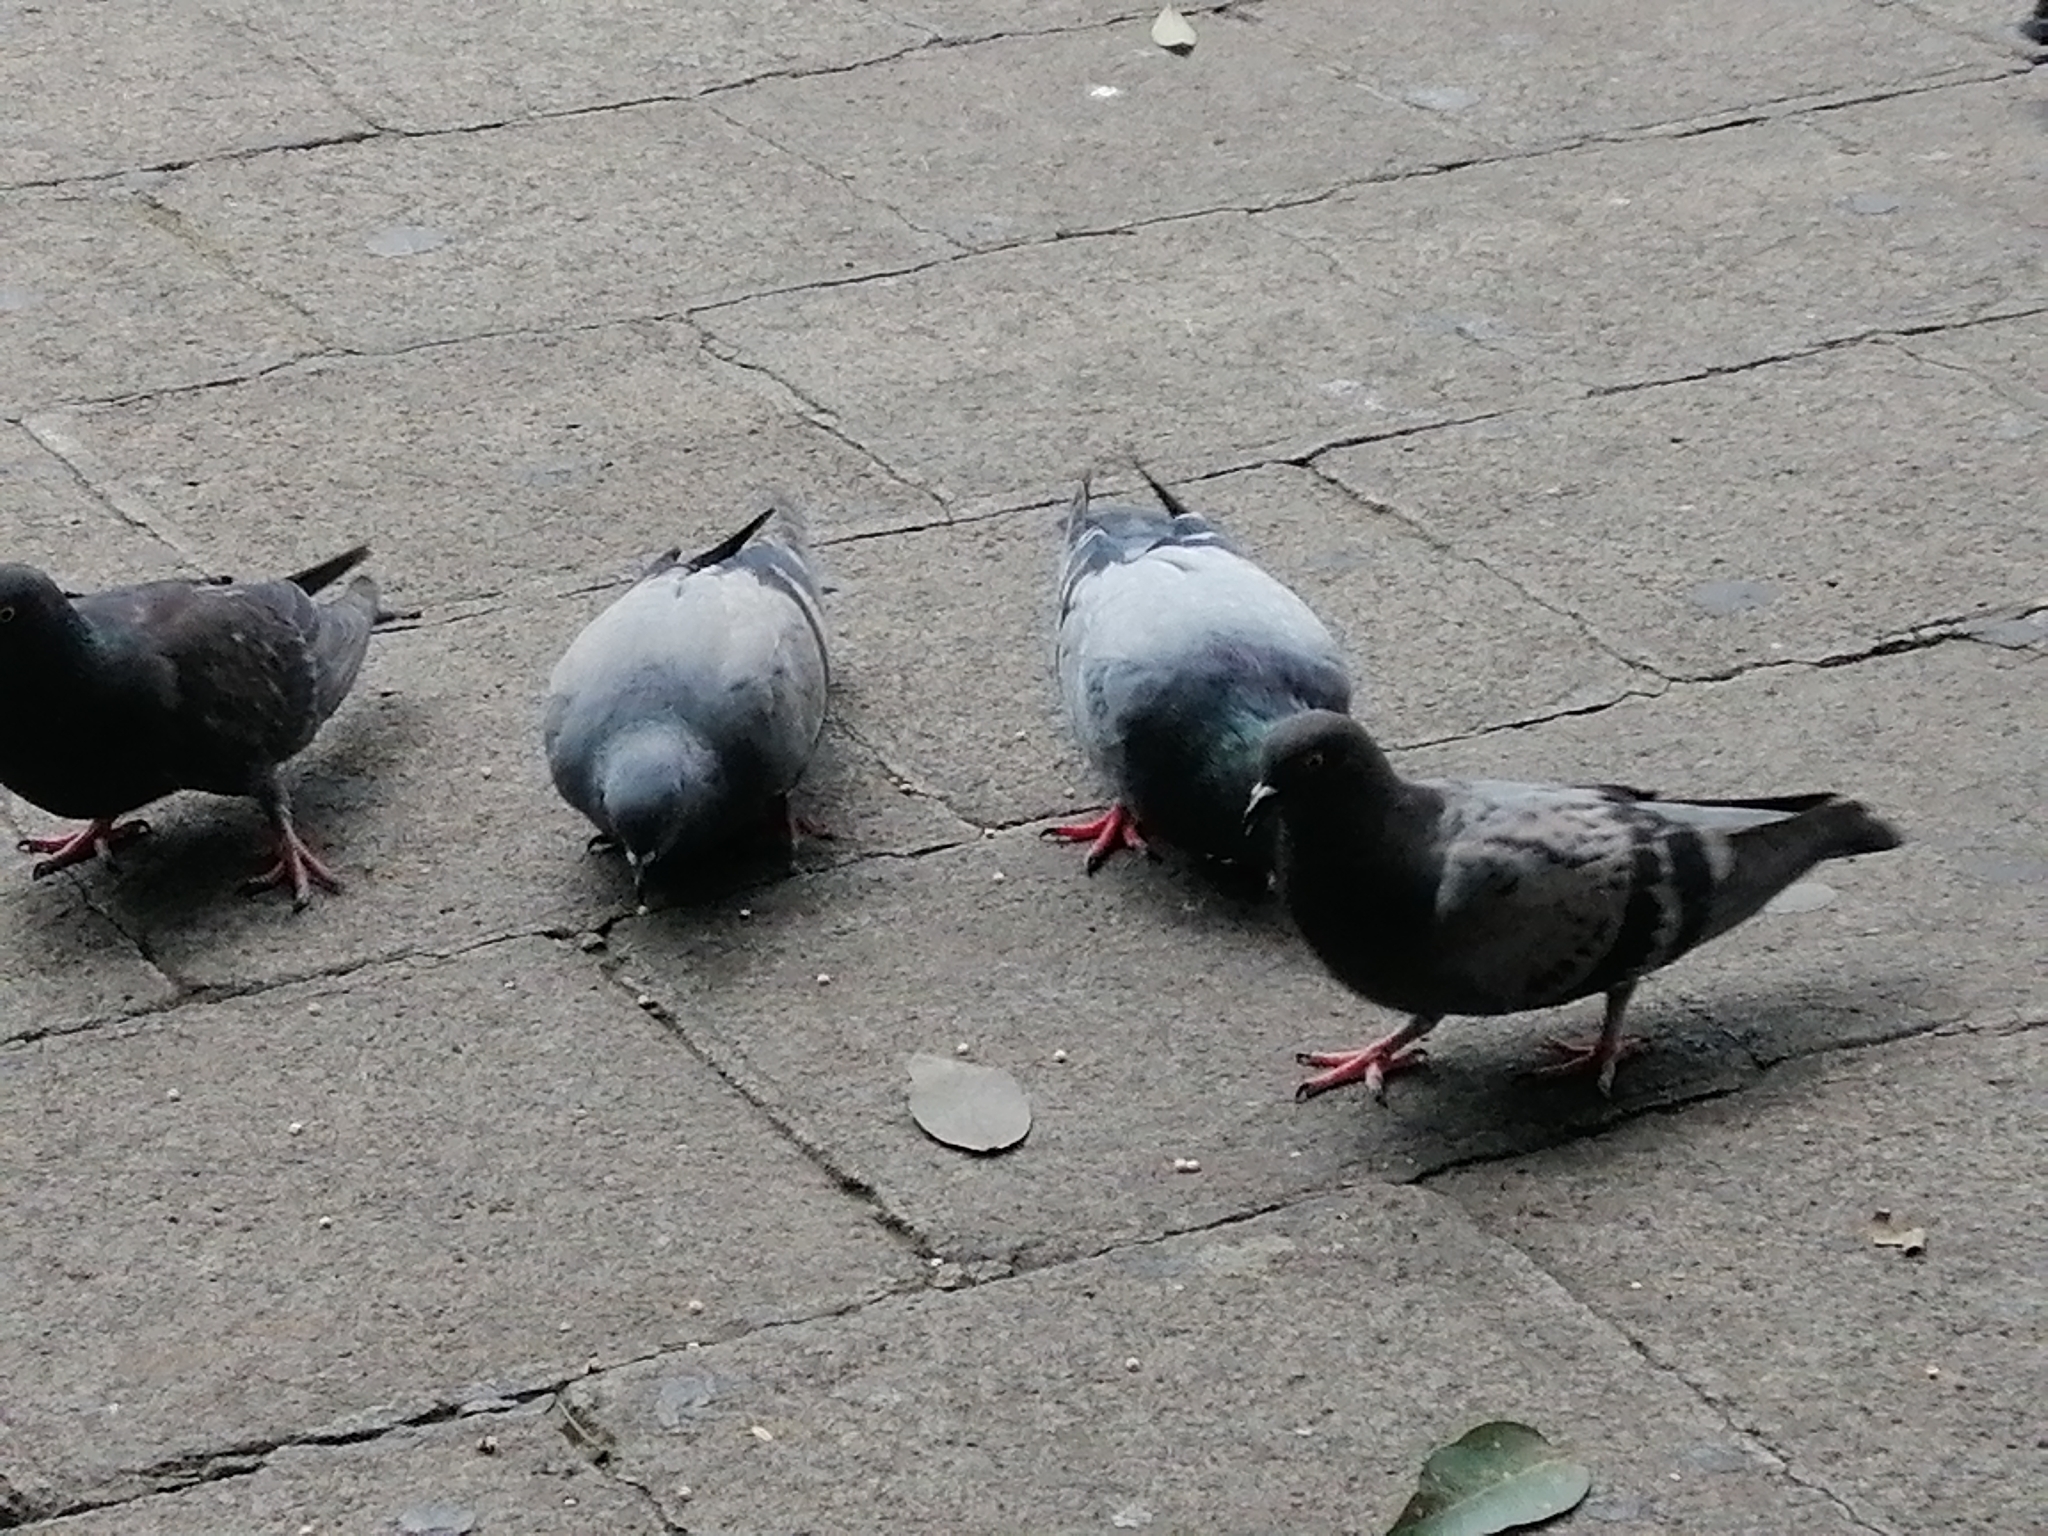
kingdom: Animalia
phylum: Chordata
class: Aves
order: Columbiformes
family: Columbidae
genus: Columba
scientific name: Columba livia
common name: Rock pigeon
